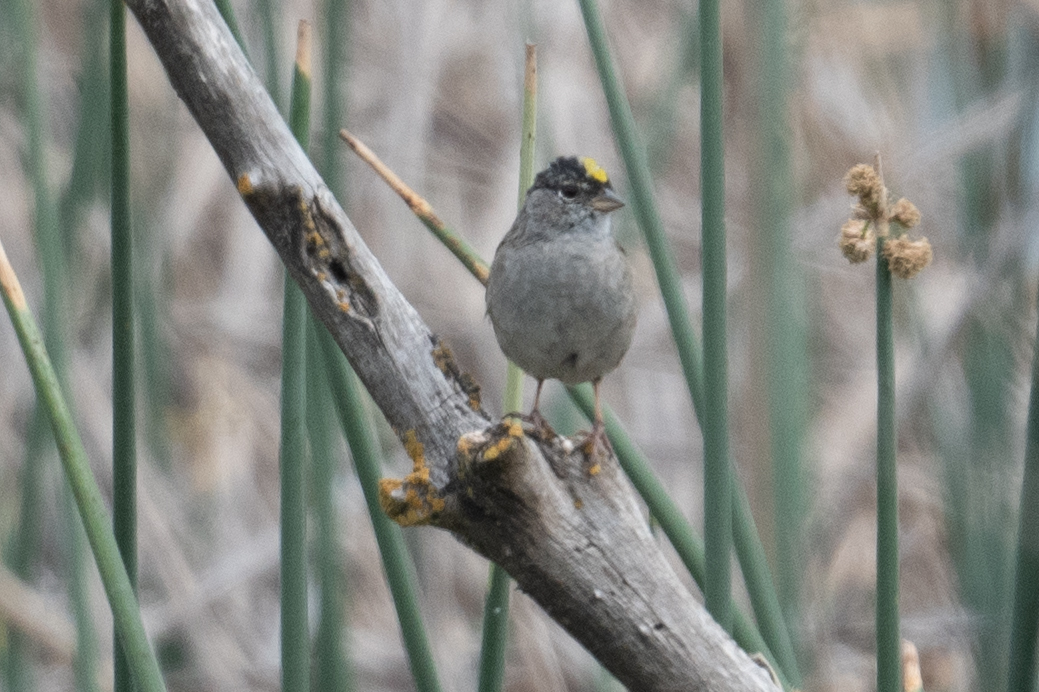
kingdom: Animalia
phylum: Chordata
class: Aves
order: Passeriformes
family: Passerellidae
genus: Zonotrichia
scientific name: Zonotrichia atricapilla
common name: Golden-crowned sparrow
